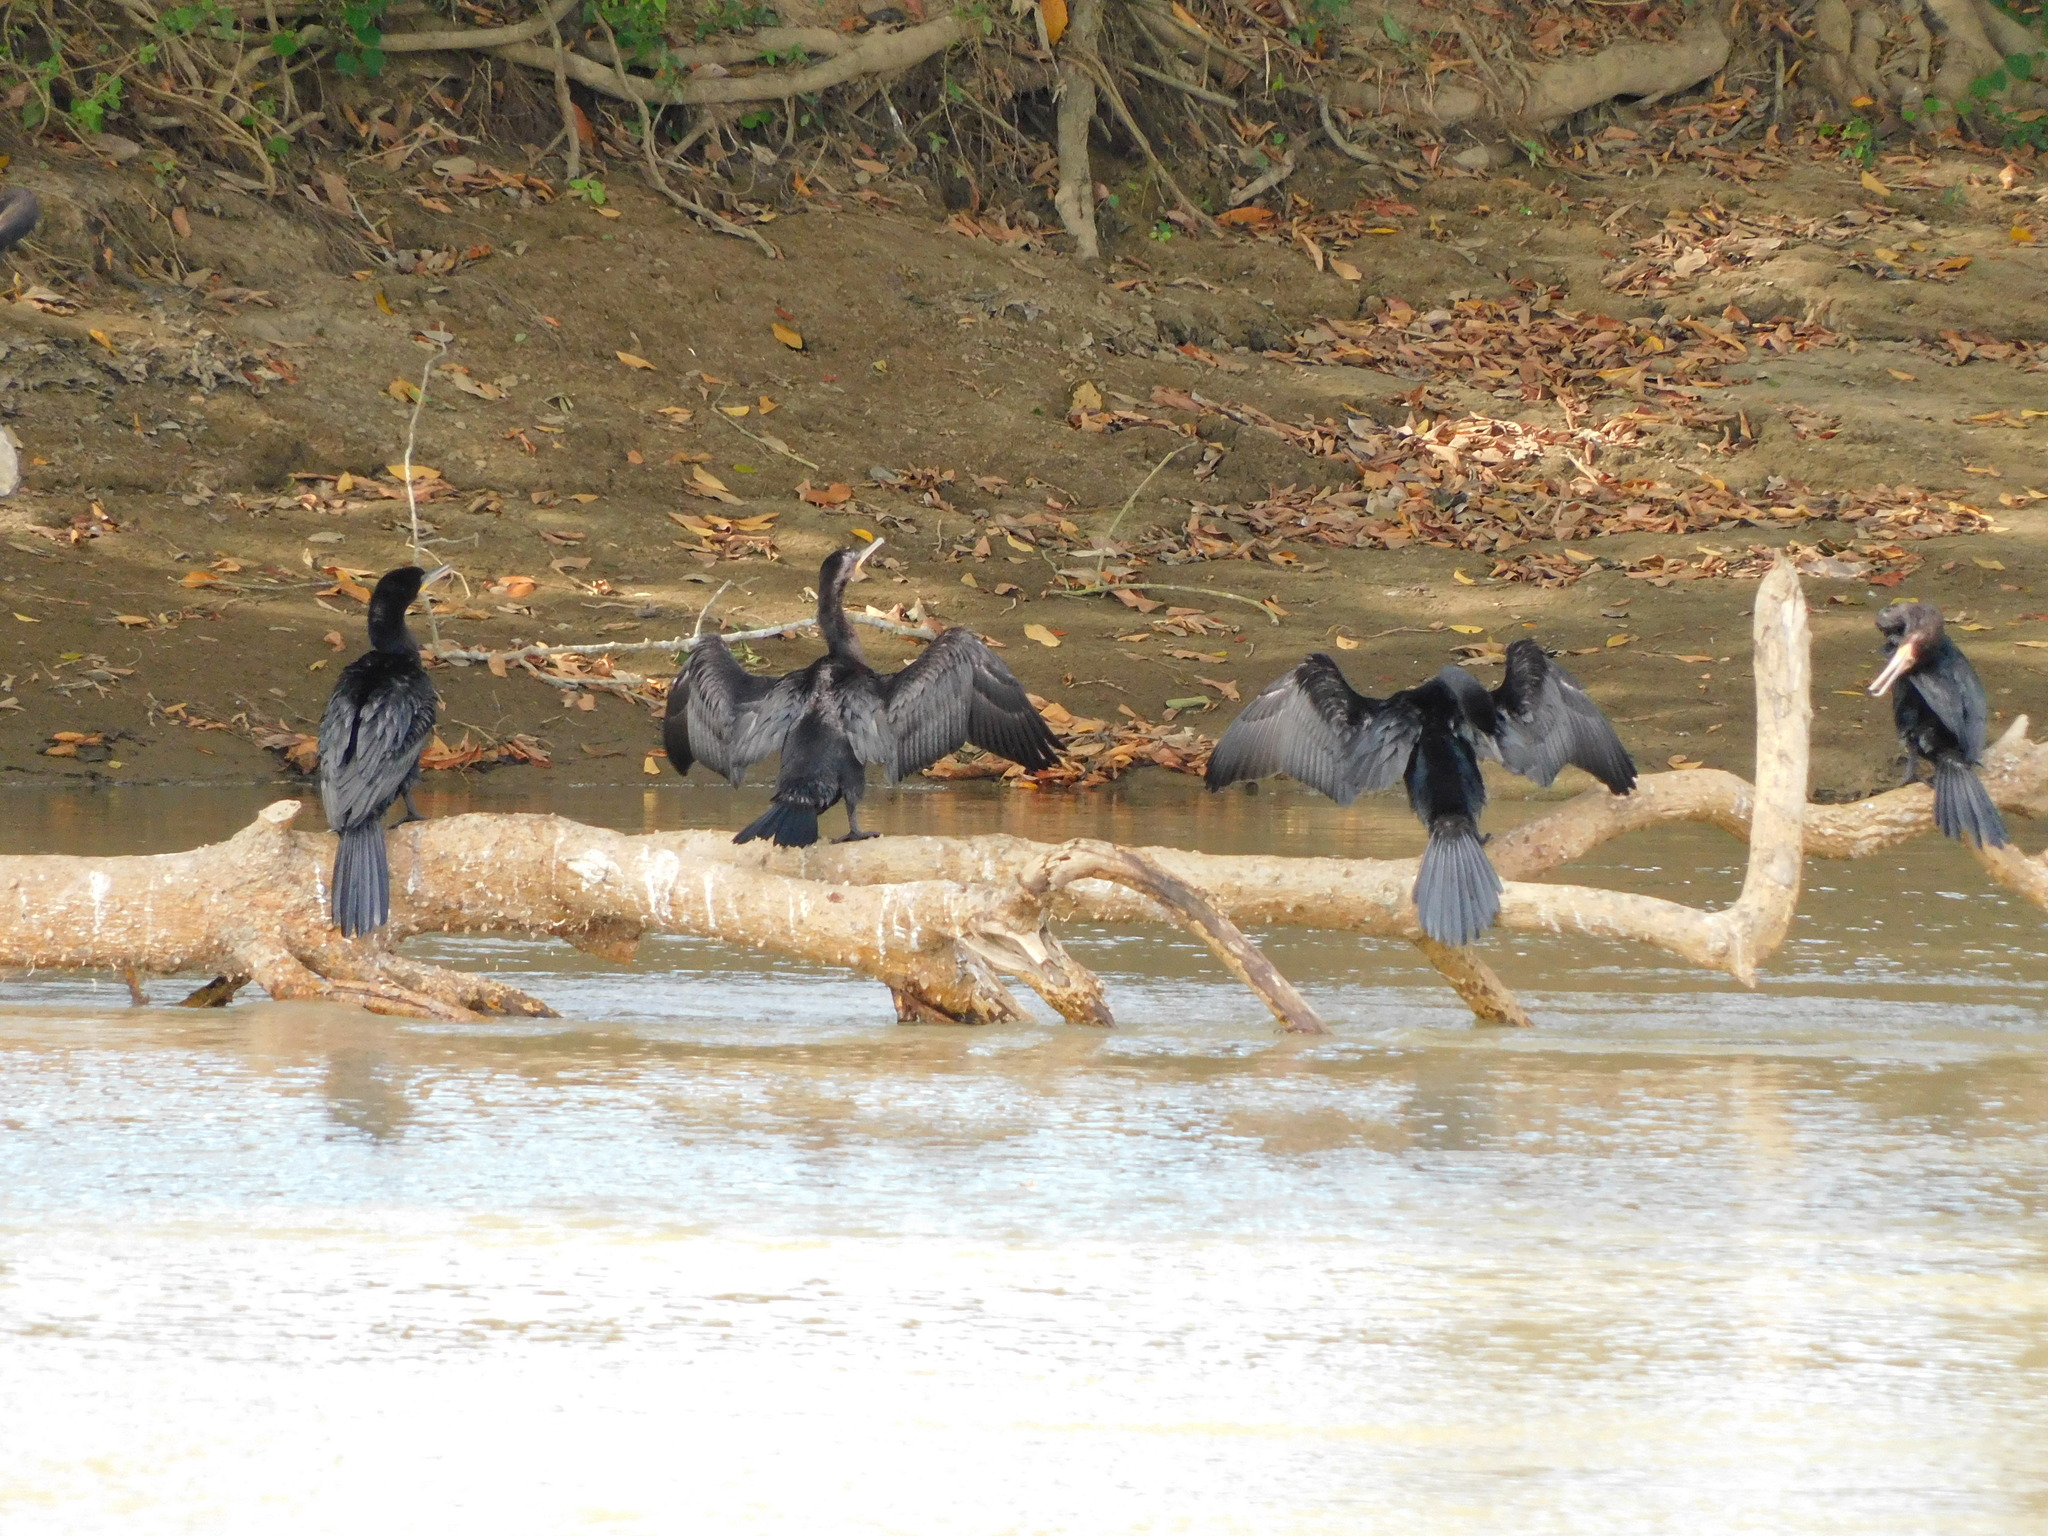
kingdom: Animalia
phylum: Chordata
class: Aves
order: Suliformes
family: Phalacrocoracidae
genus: Phalacrocorax
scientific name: Phalacrocorax brasilianus
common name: Neotropic cormorant
